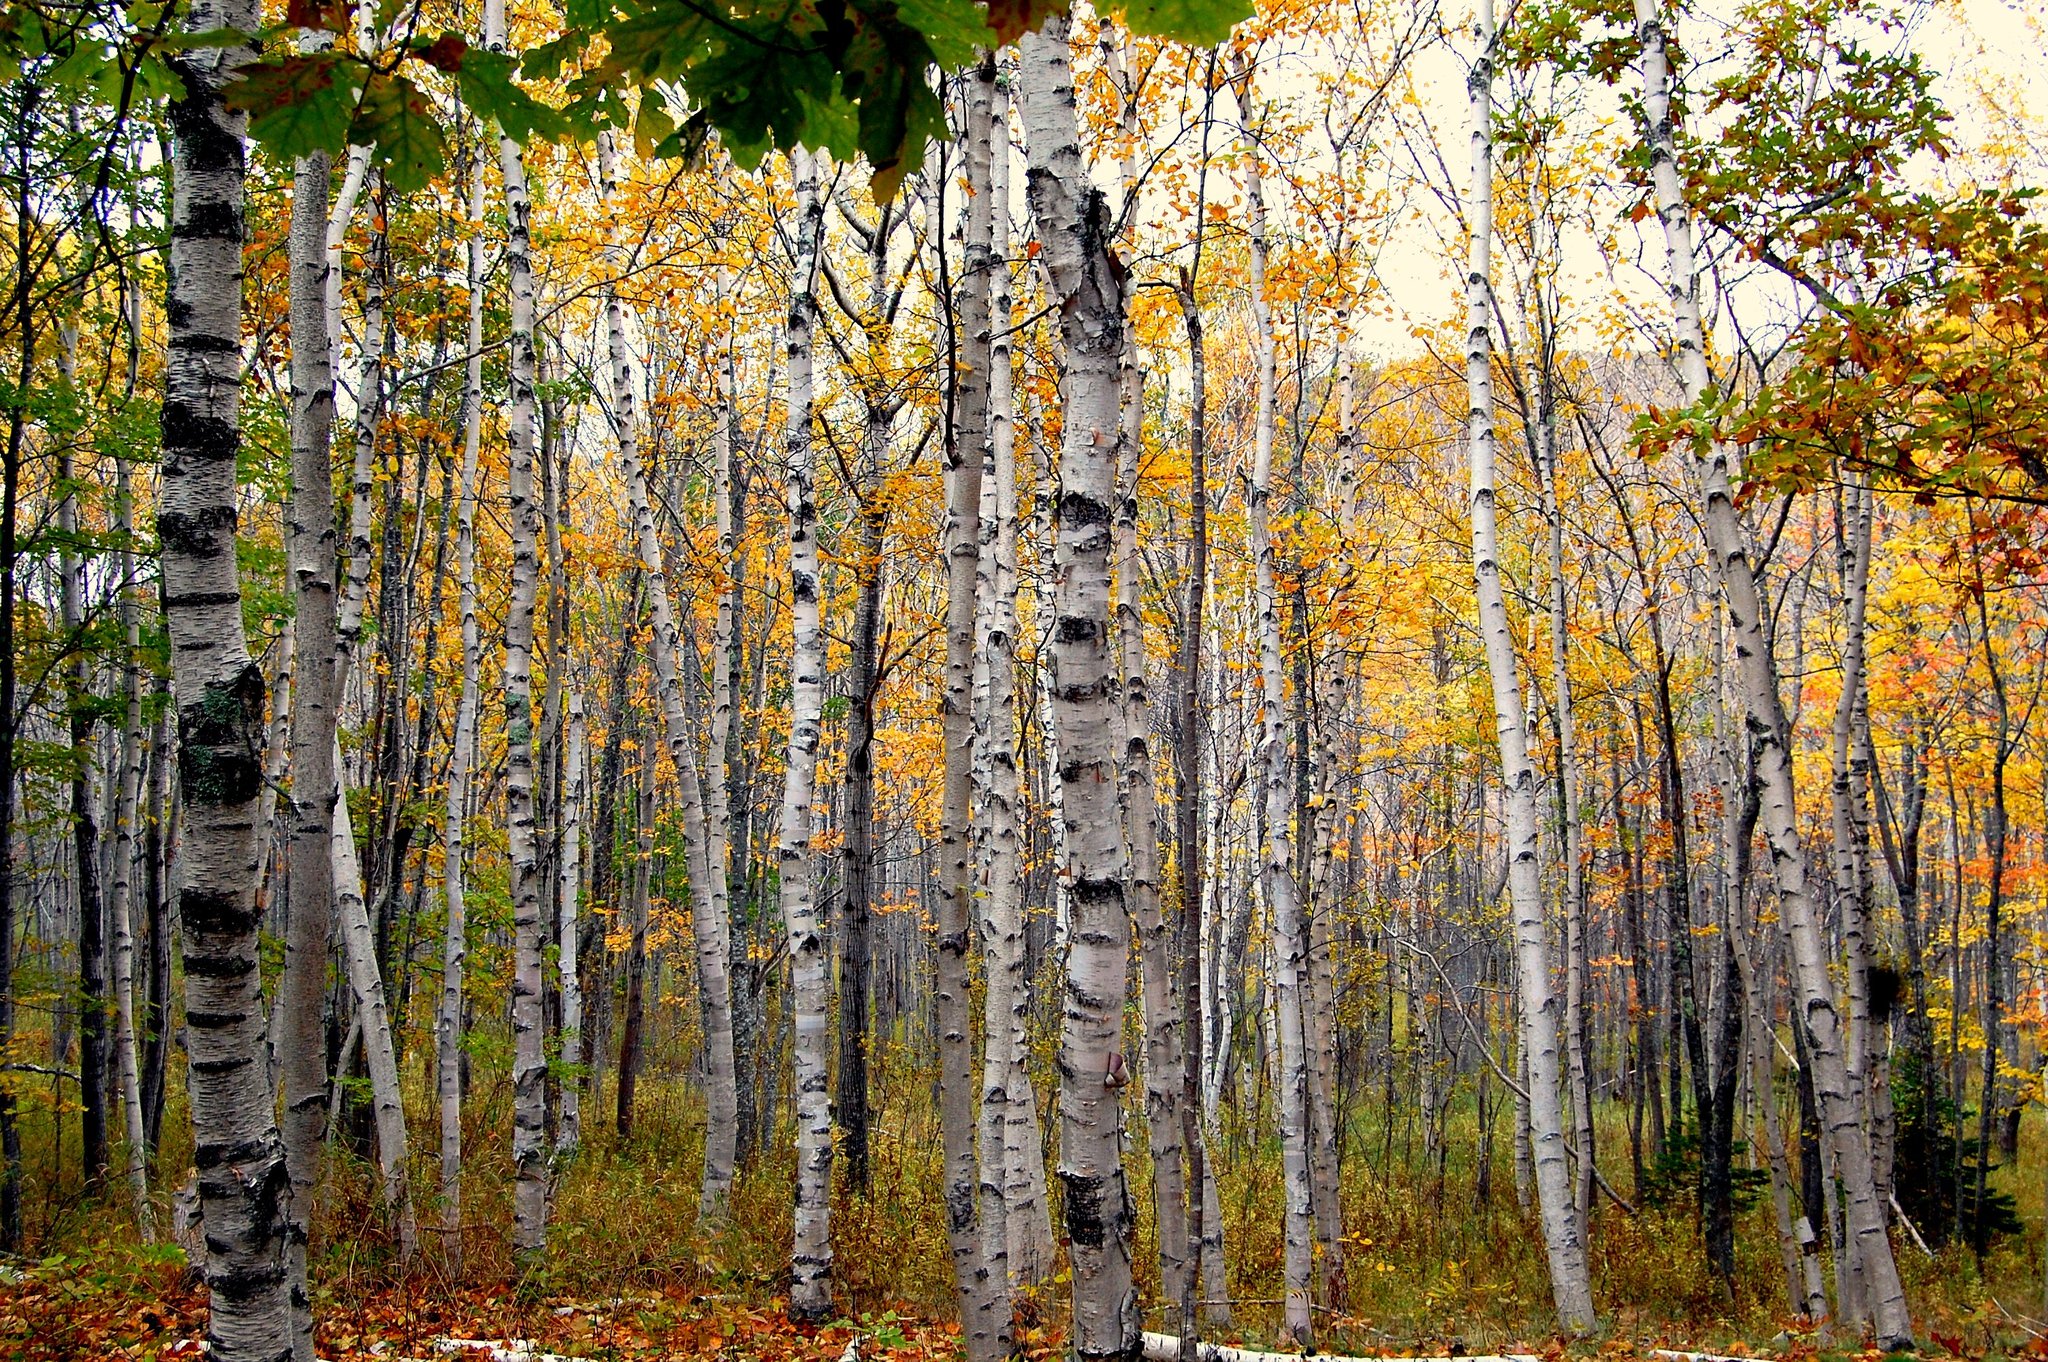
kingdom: Plantae
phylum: Tracheophyta
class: Magnoliopsida
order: Fagales
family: Betulaceae
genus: Betula
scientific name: Betula papyrifera
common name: Paper birch
